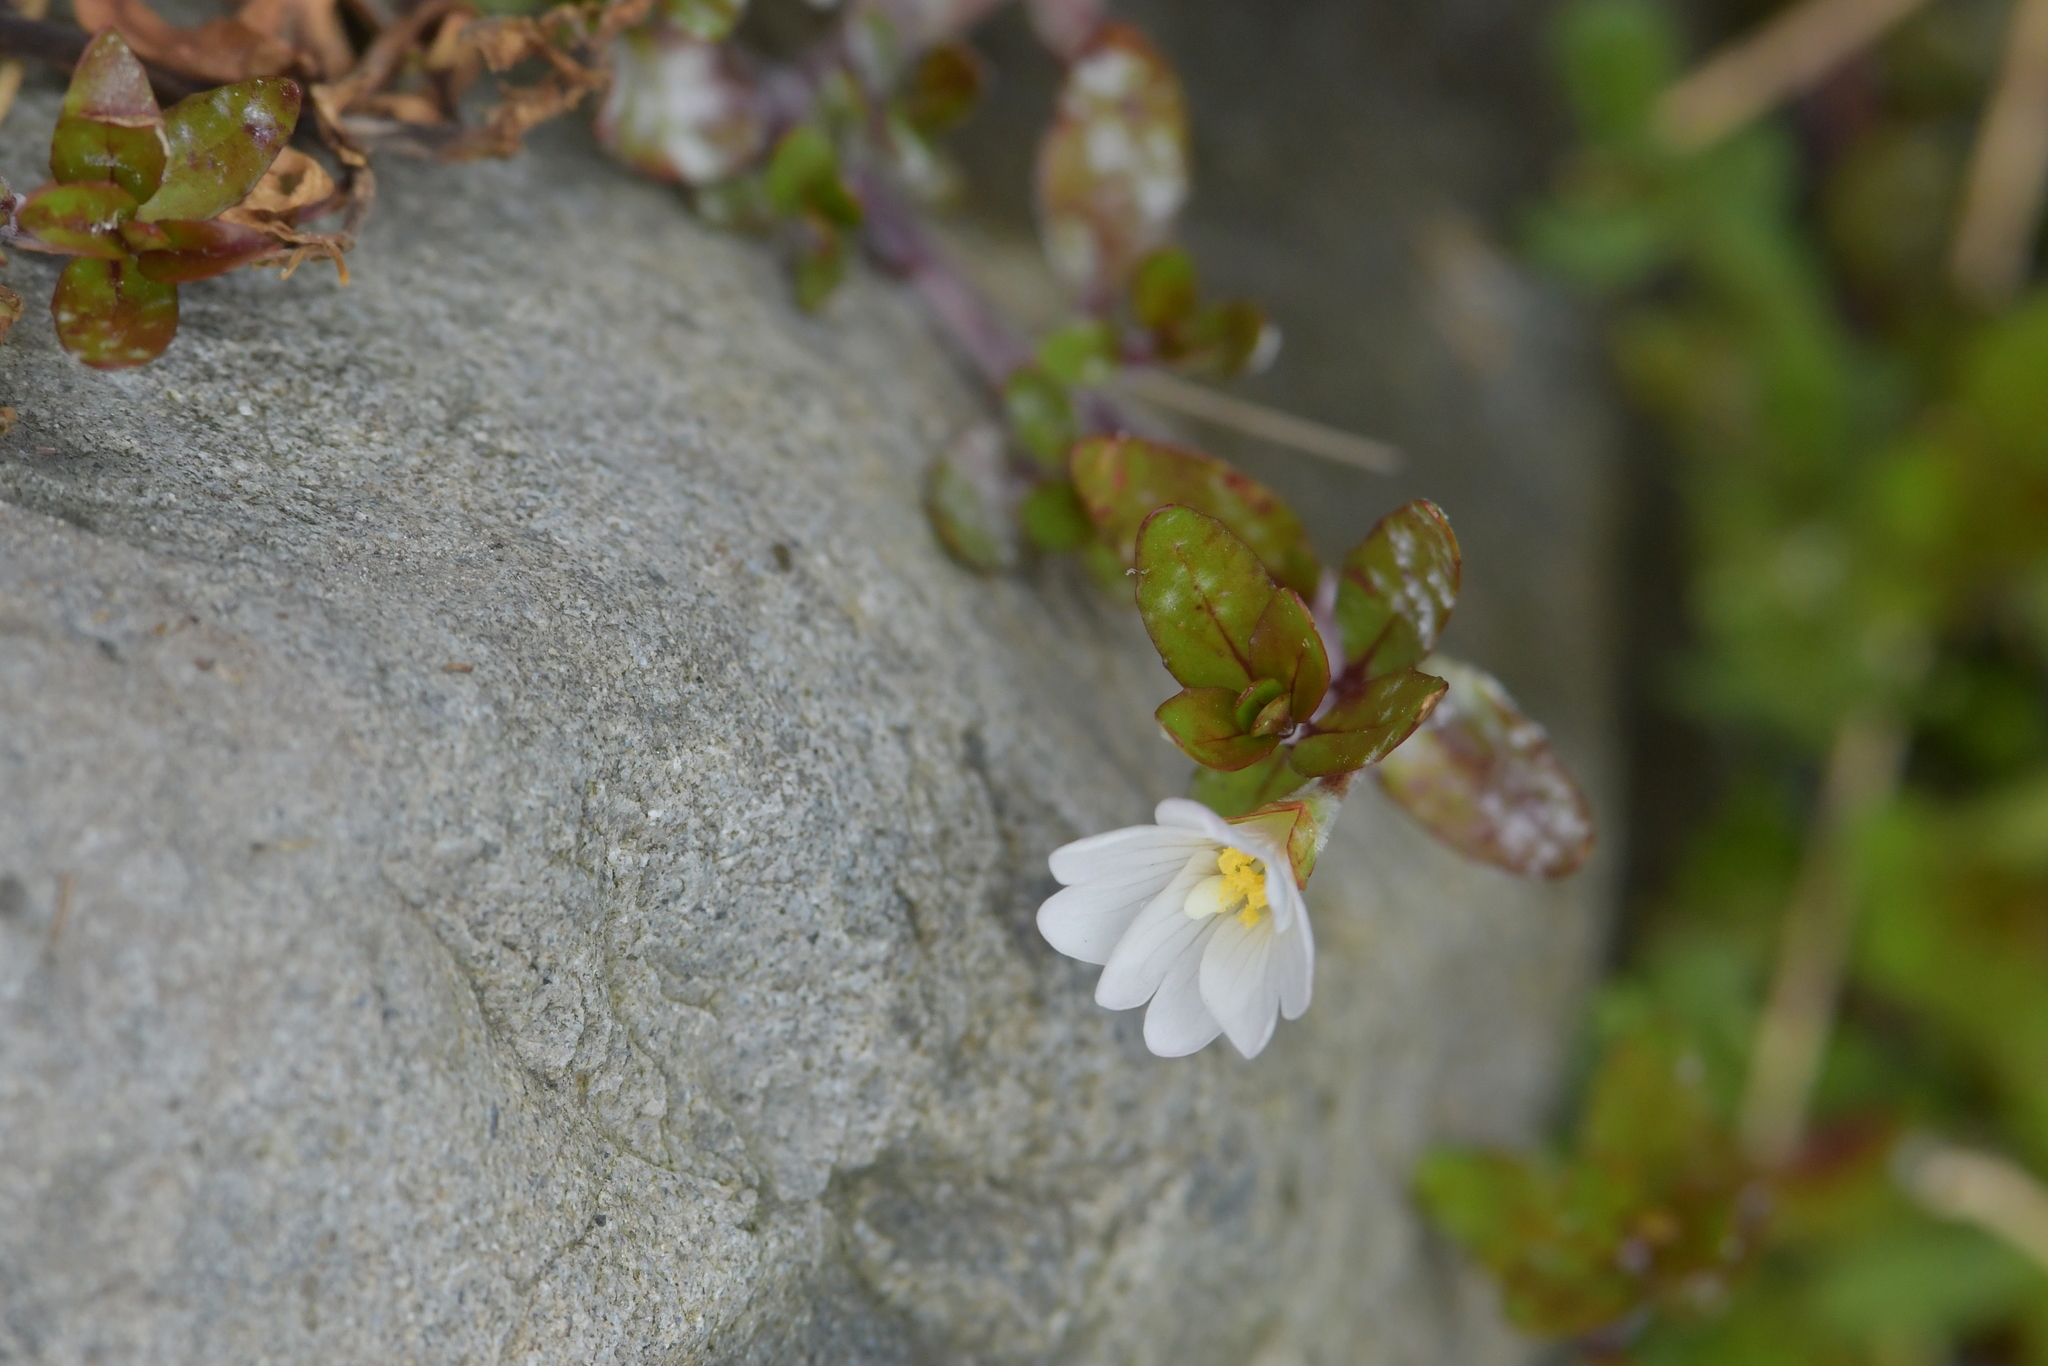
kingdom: Plantae
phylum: Tracheophyta
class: Magnoliopsida
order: Myrtales
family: Onagraceae
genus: Epilobium
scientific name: Epilobium macropus
